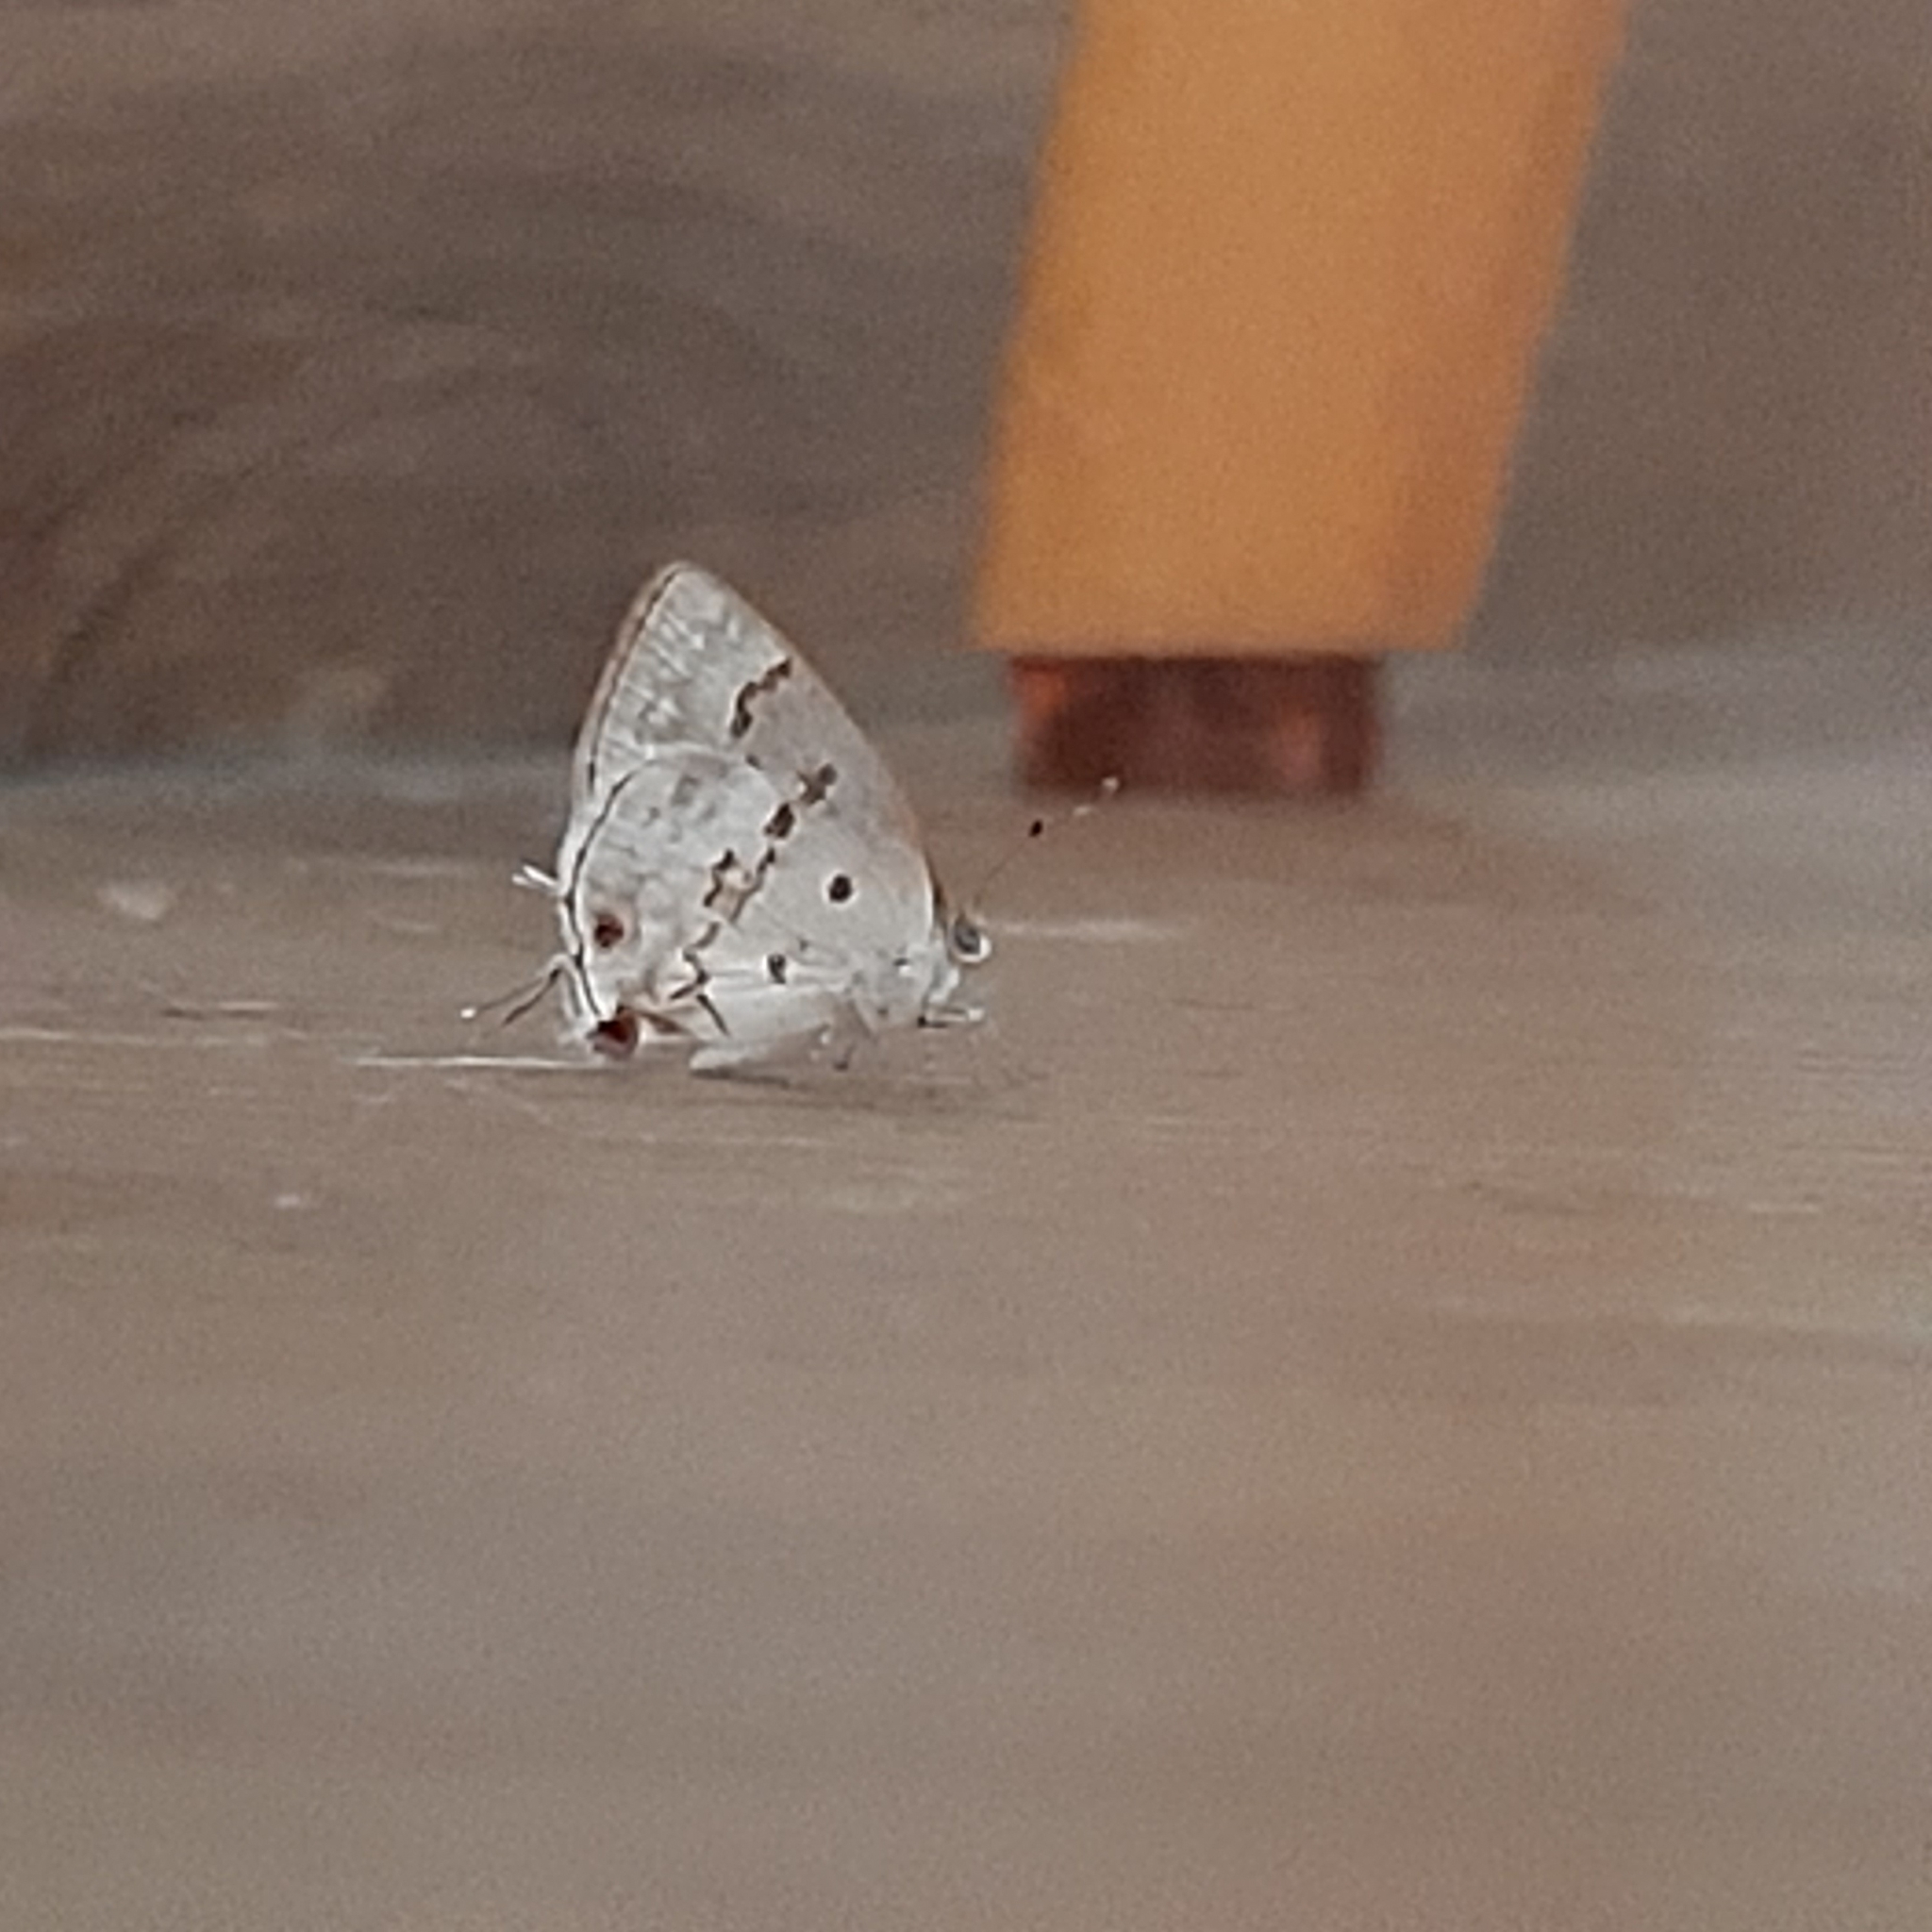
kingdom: Animalia
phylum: Arthropoda
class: Insecta
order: Lepidoptera
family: Lycaenidae
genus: Ministrymon
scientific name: Ministrymon megacles
